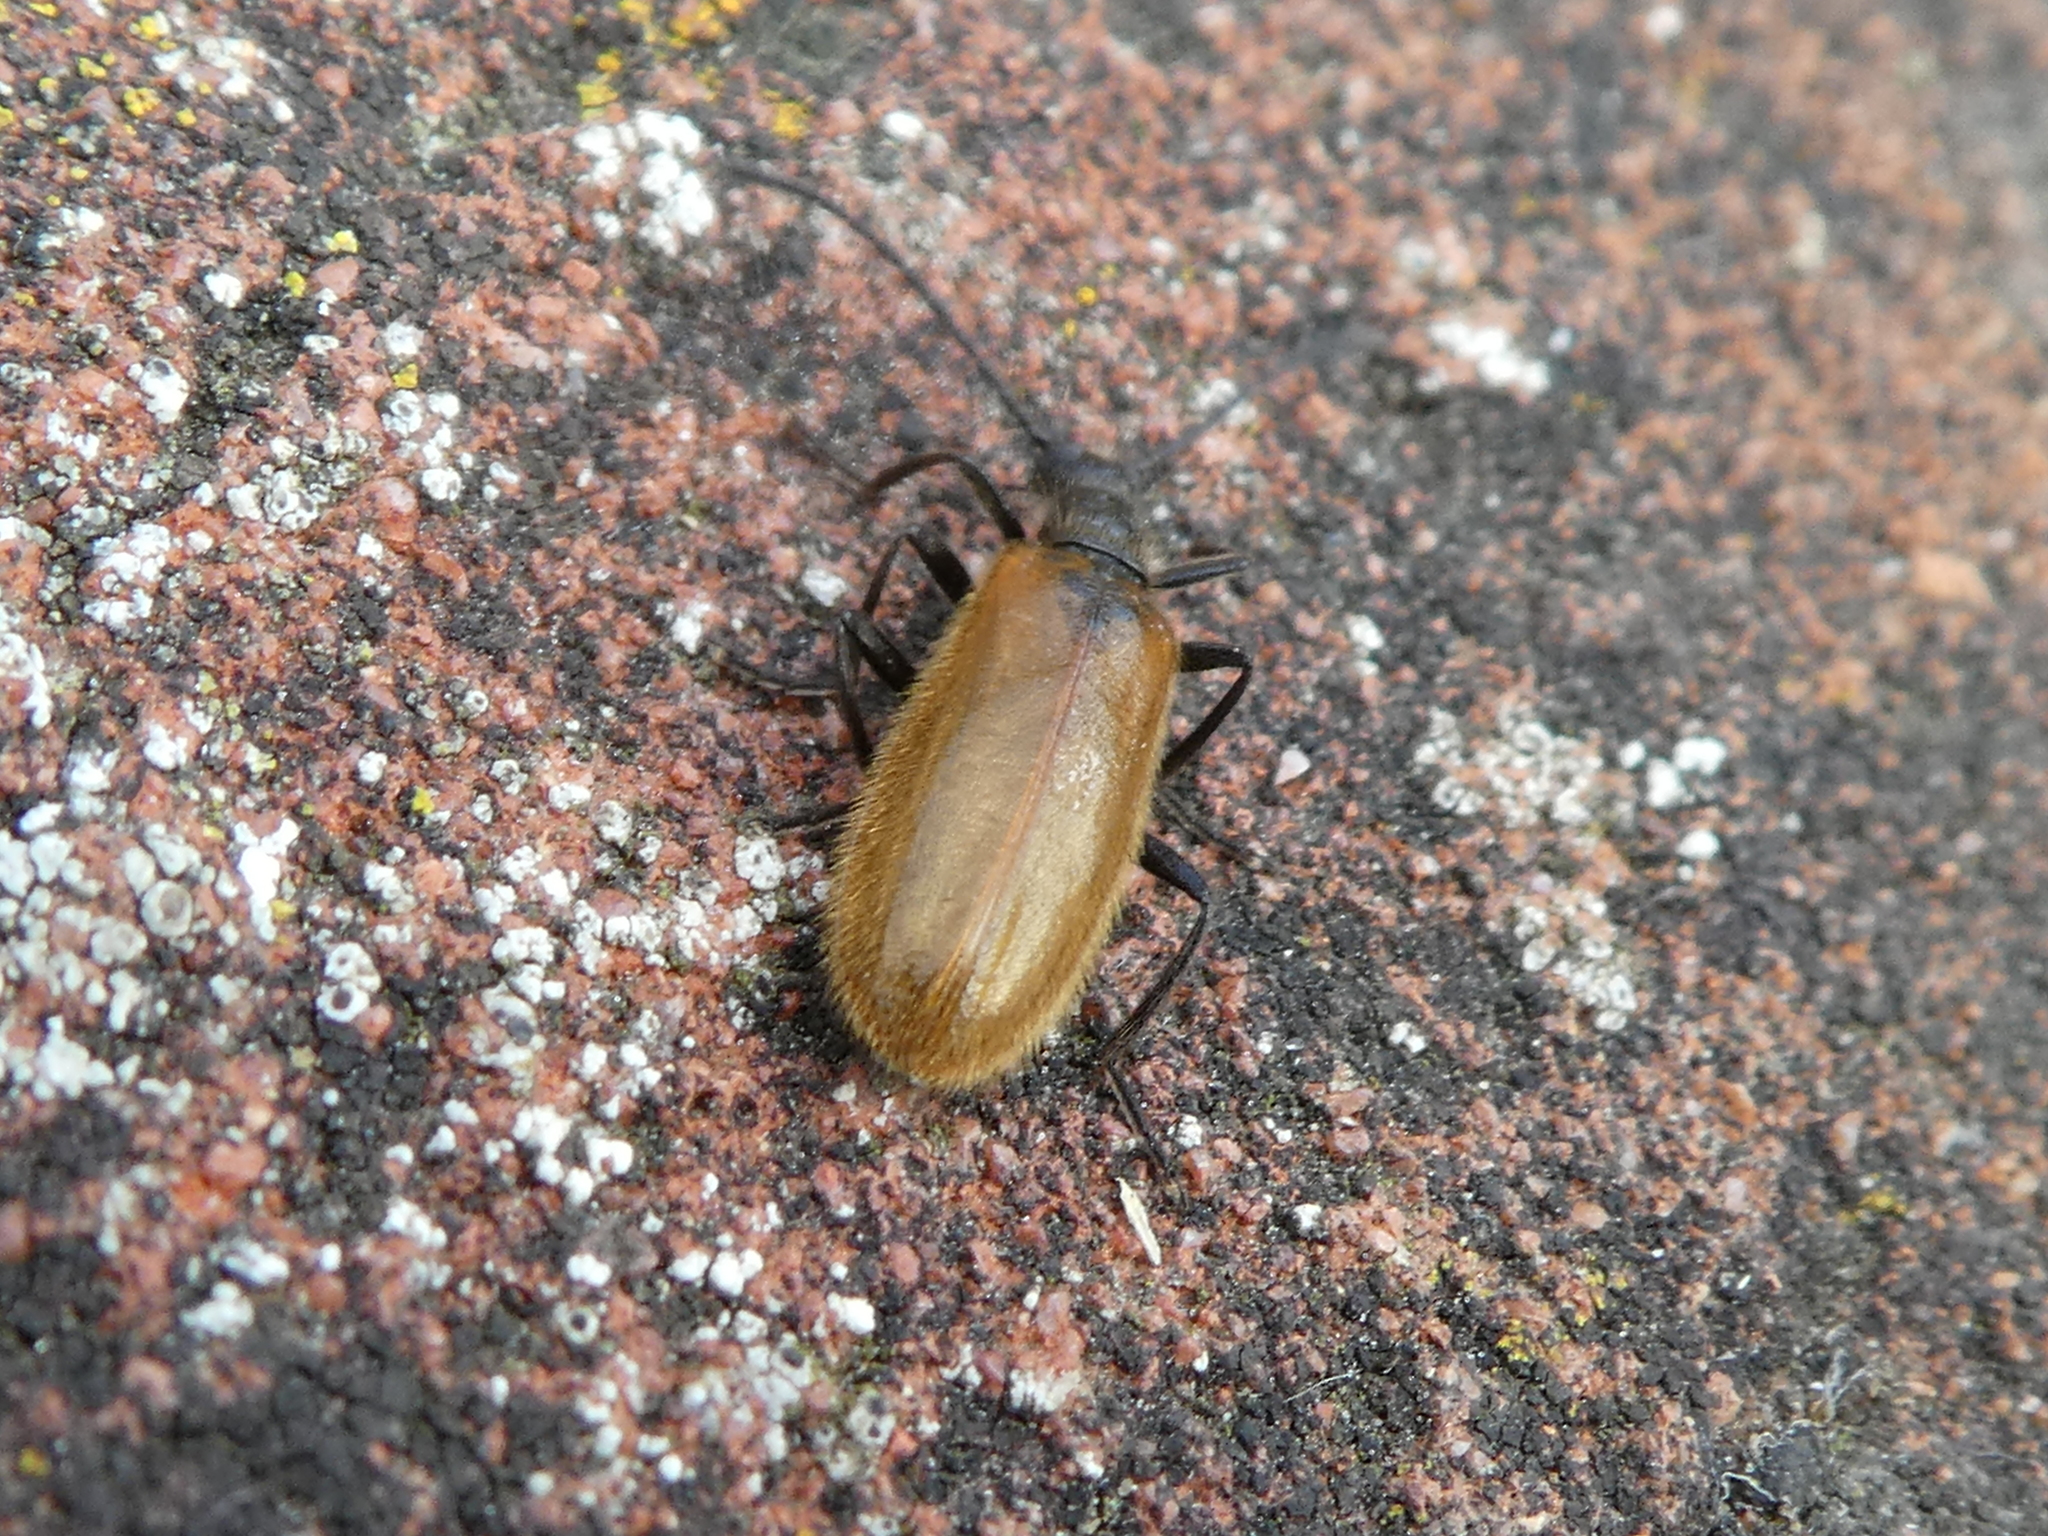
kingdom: Animalia
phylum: Arthropoda
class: Insecta
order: Coleoptera
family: Tenebrionidae
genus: Lagria
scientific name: Lagria hirta
